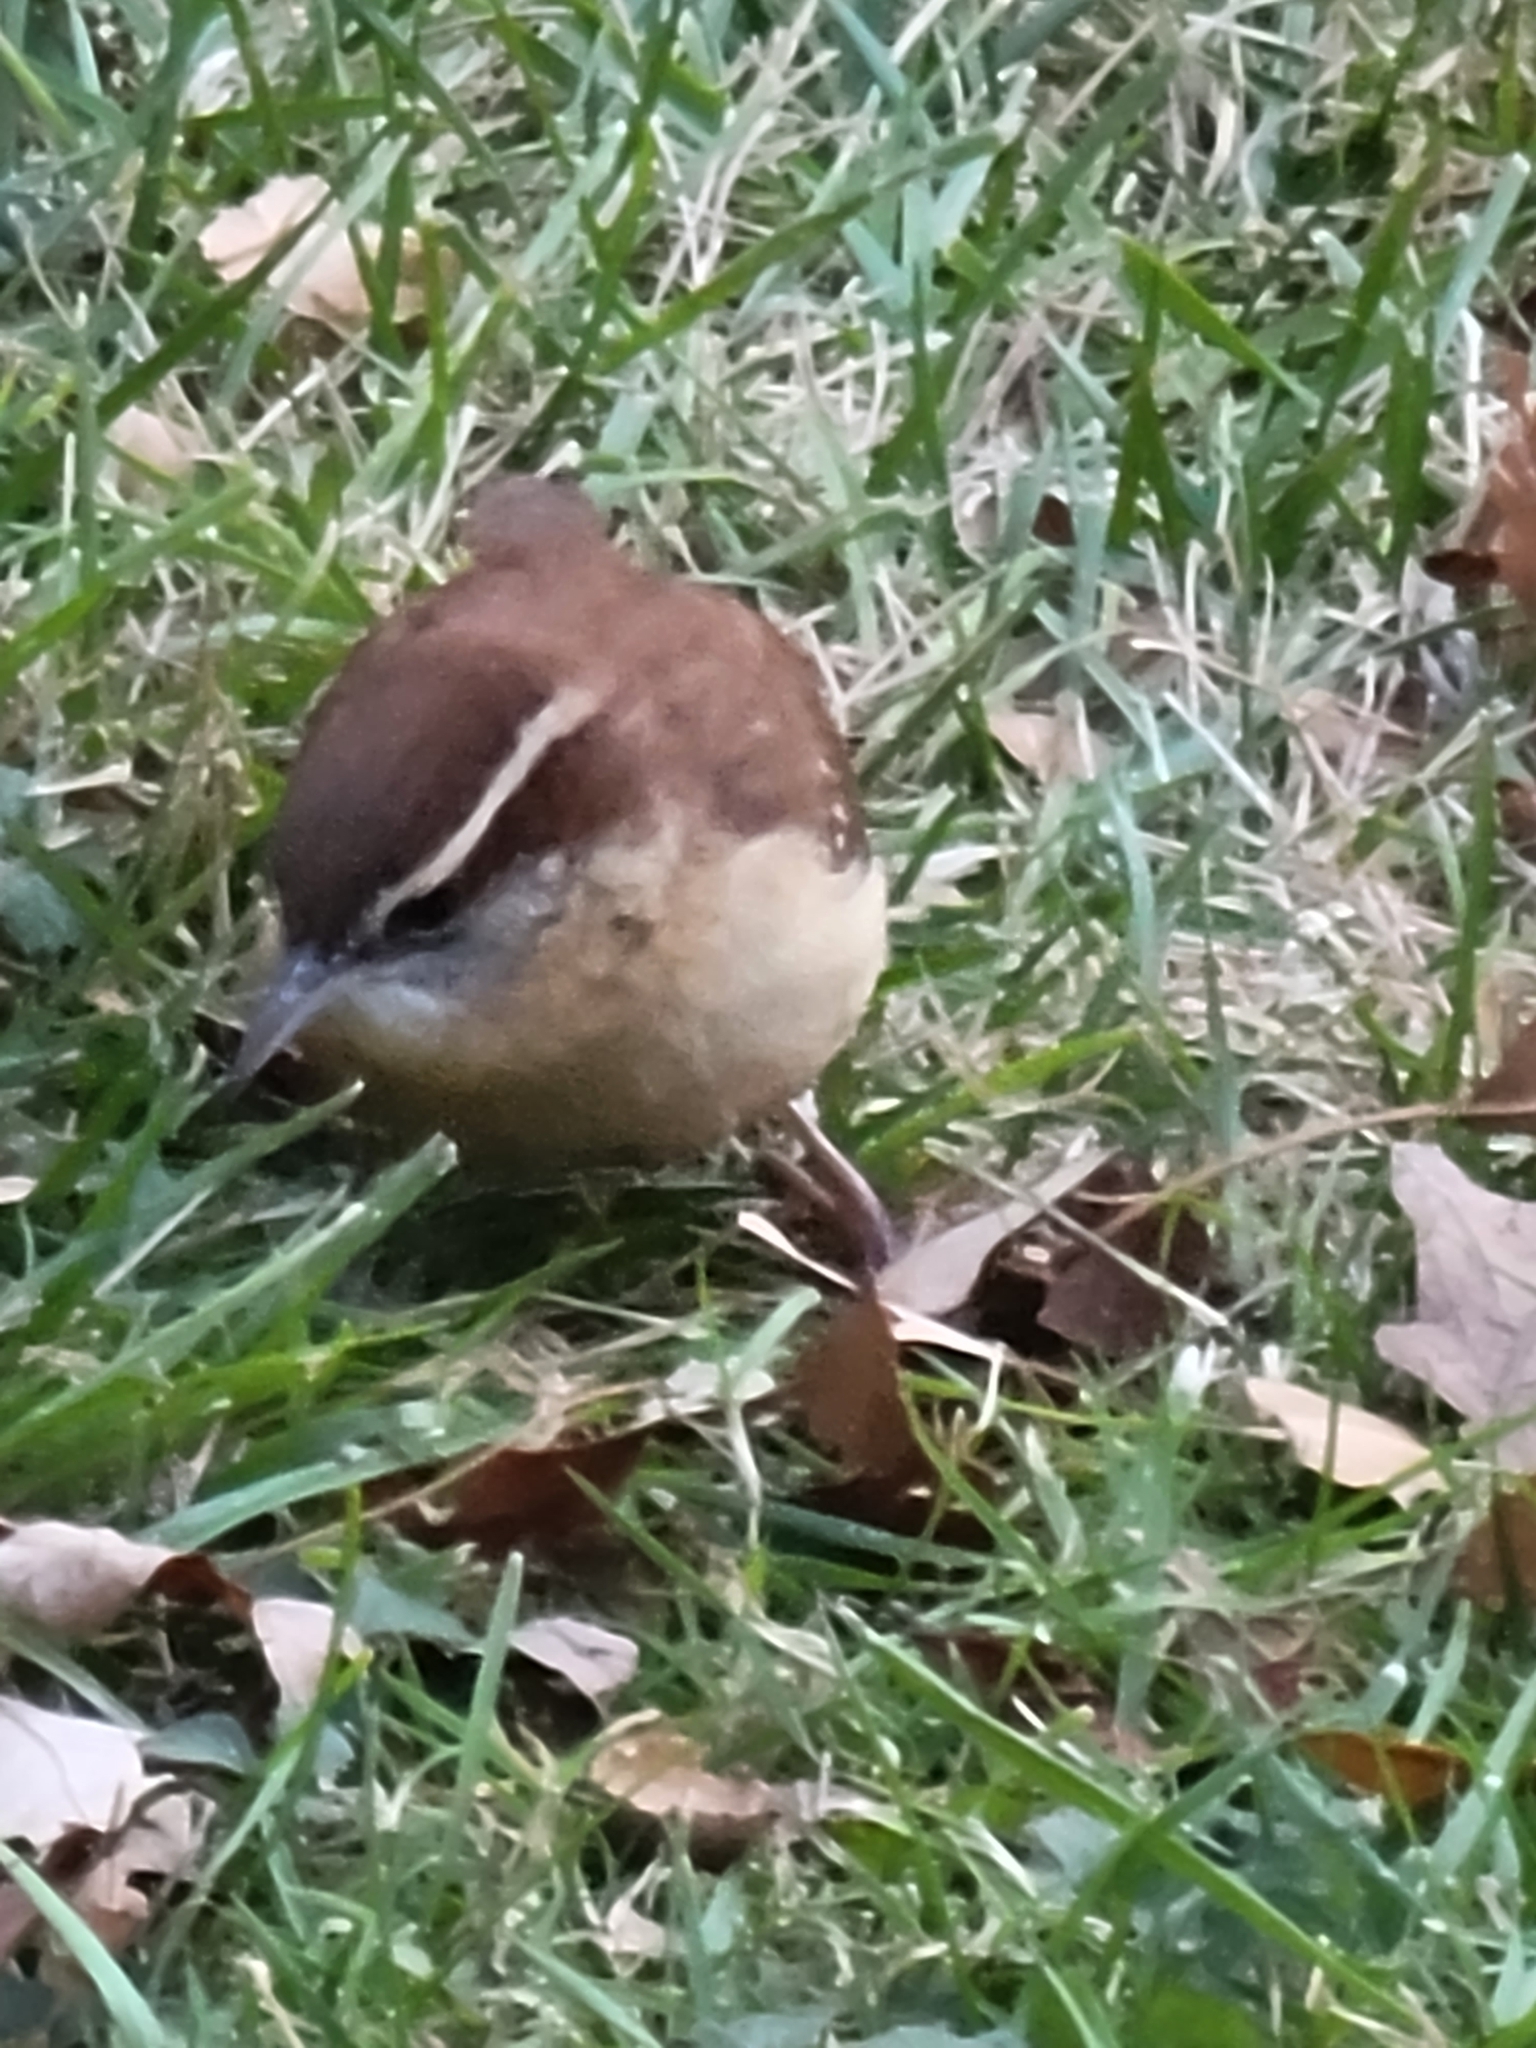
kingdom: Animalia
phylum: Chordata
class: Aves
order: Passeriformes
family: Troglodytidae
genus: Thryothorus
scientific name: Thryothorus ludovicianus
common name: Carolina wren
